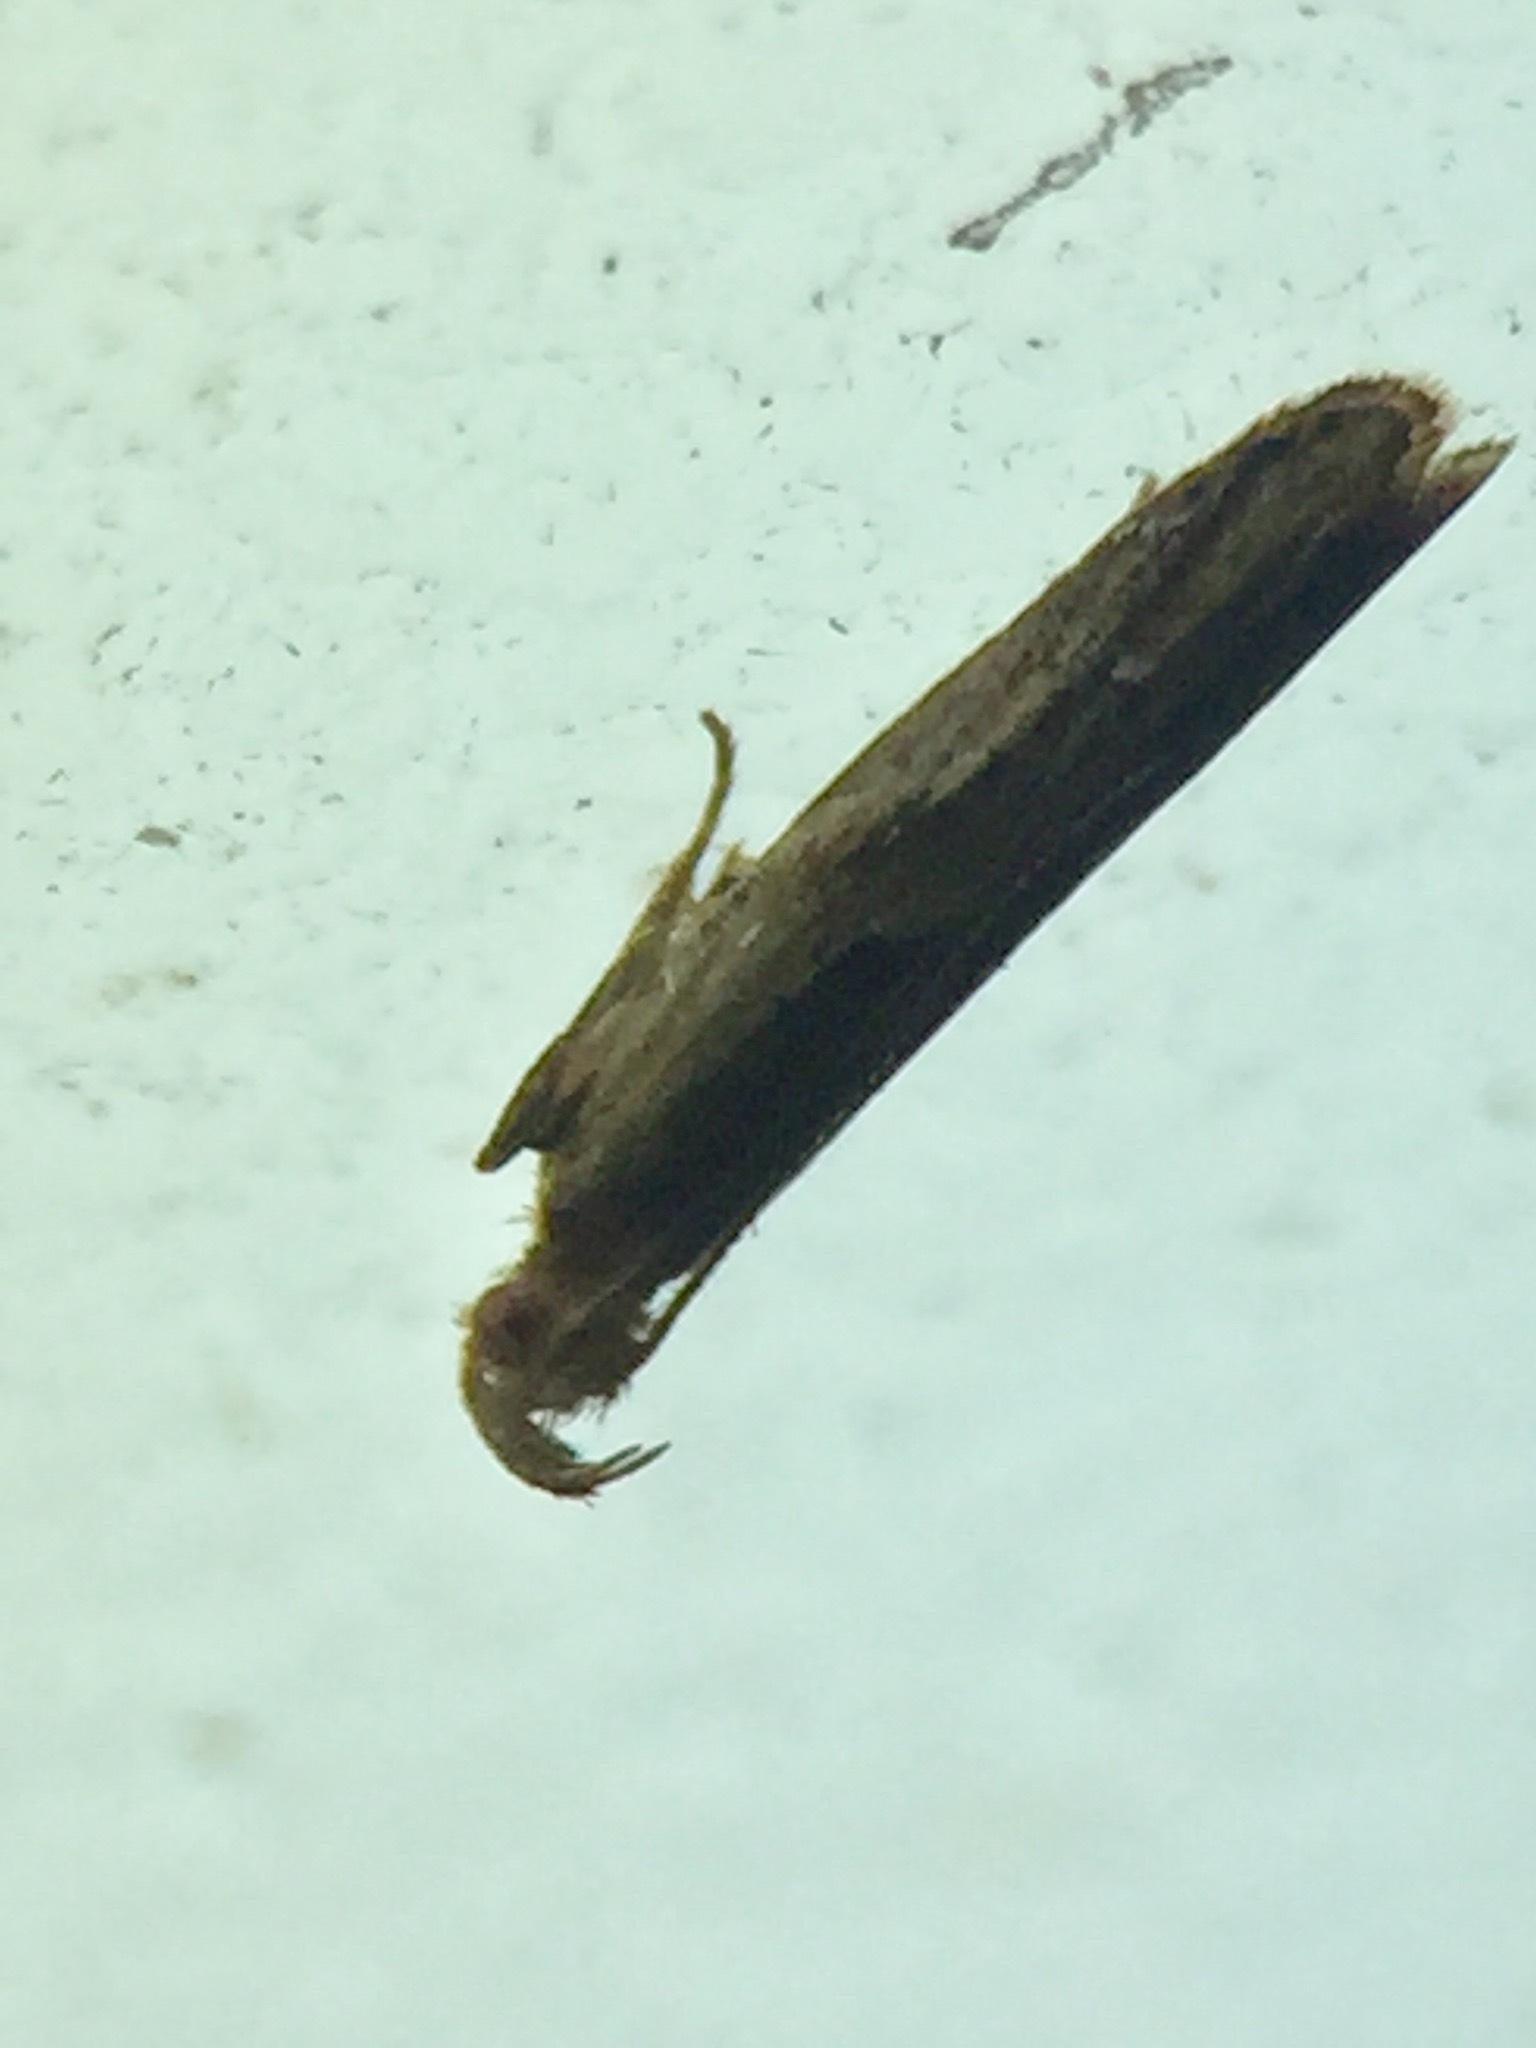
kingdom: Animalia
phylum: Arthropoda
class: Insecta
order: Lepidoptera
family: Depressariidae
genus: Eutorna
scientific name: Eutorna symmorpha
